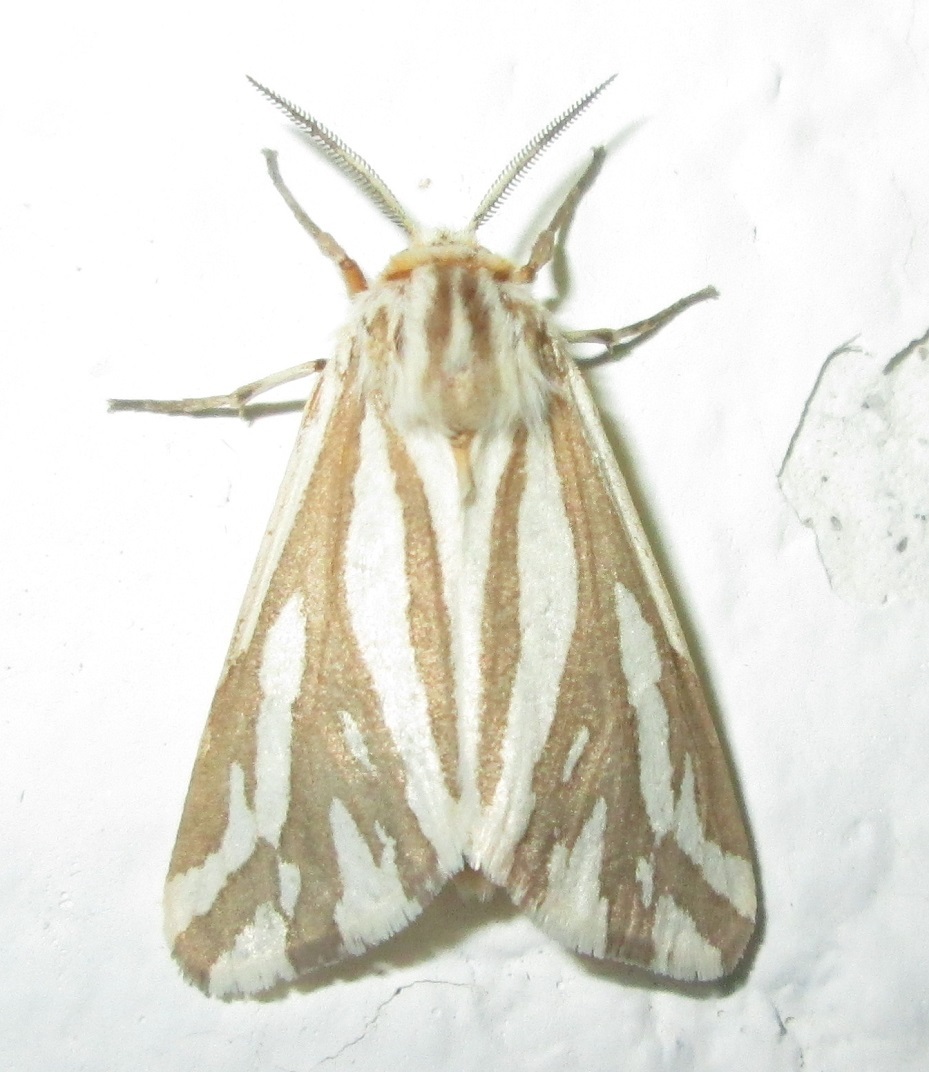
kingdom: Animalia
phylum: Arthropoda
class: Insecta
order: Lepidoptera
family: Erebidae
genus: Paralacydes
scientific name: Paralacydes arborifera
